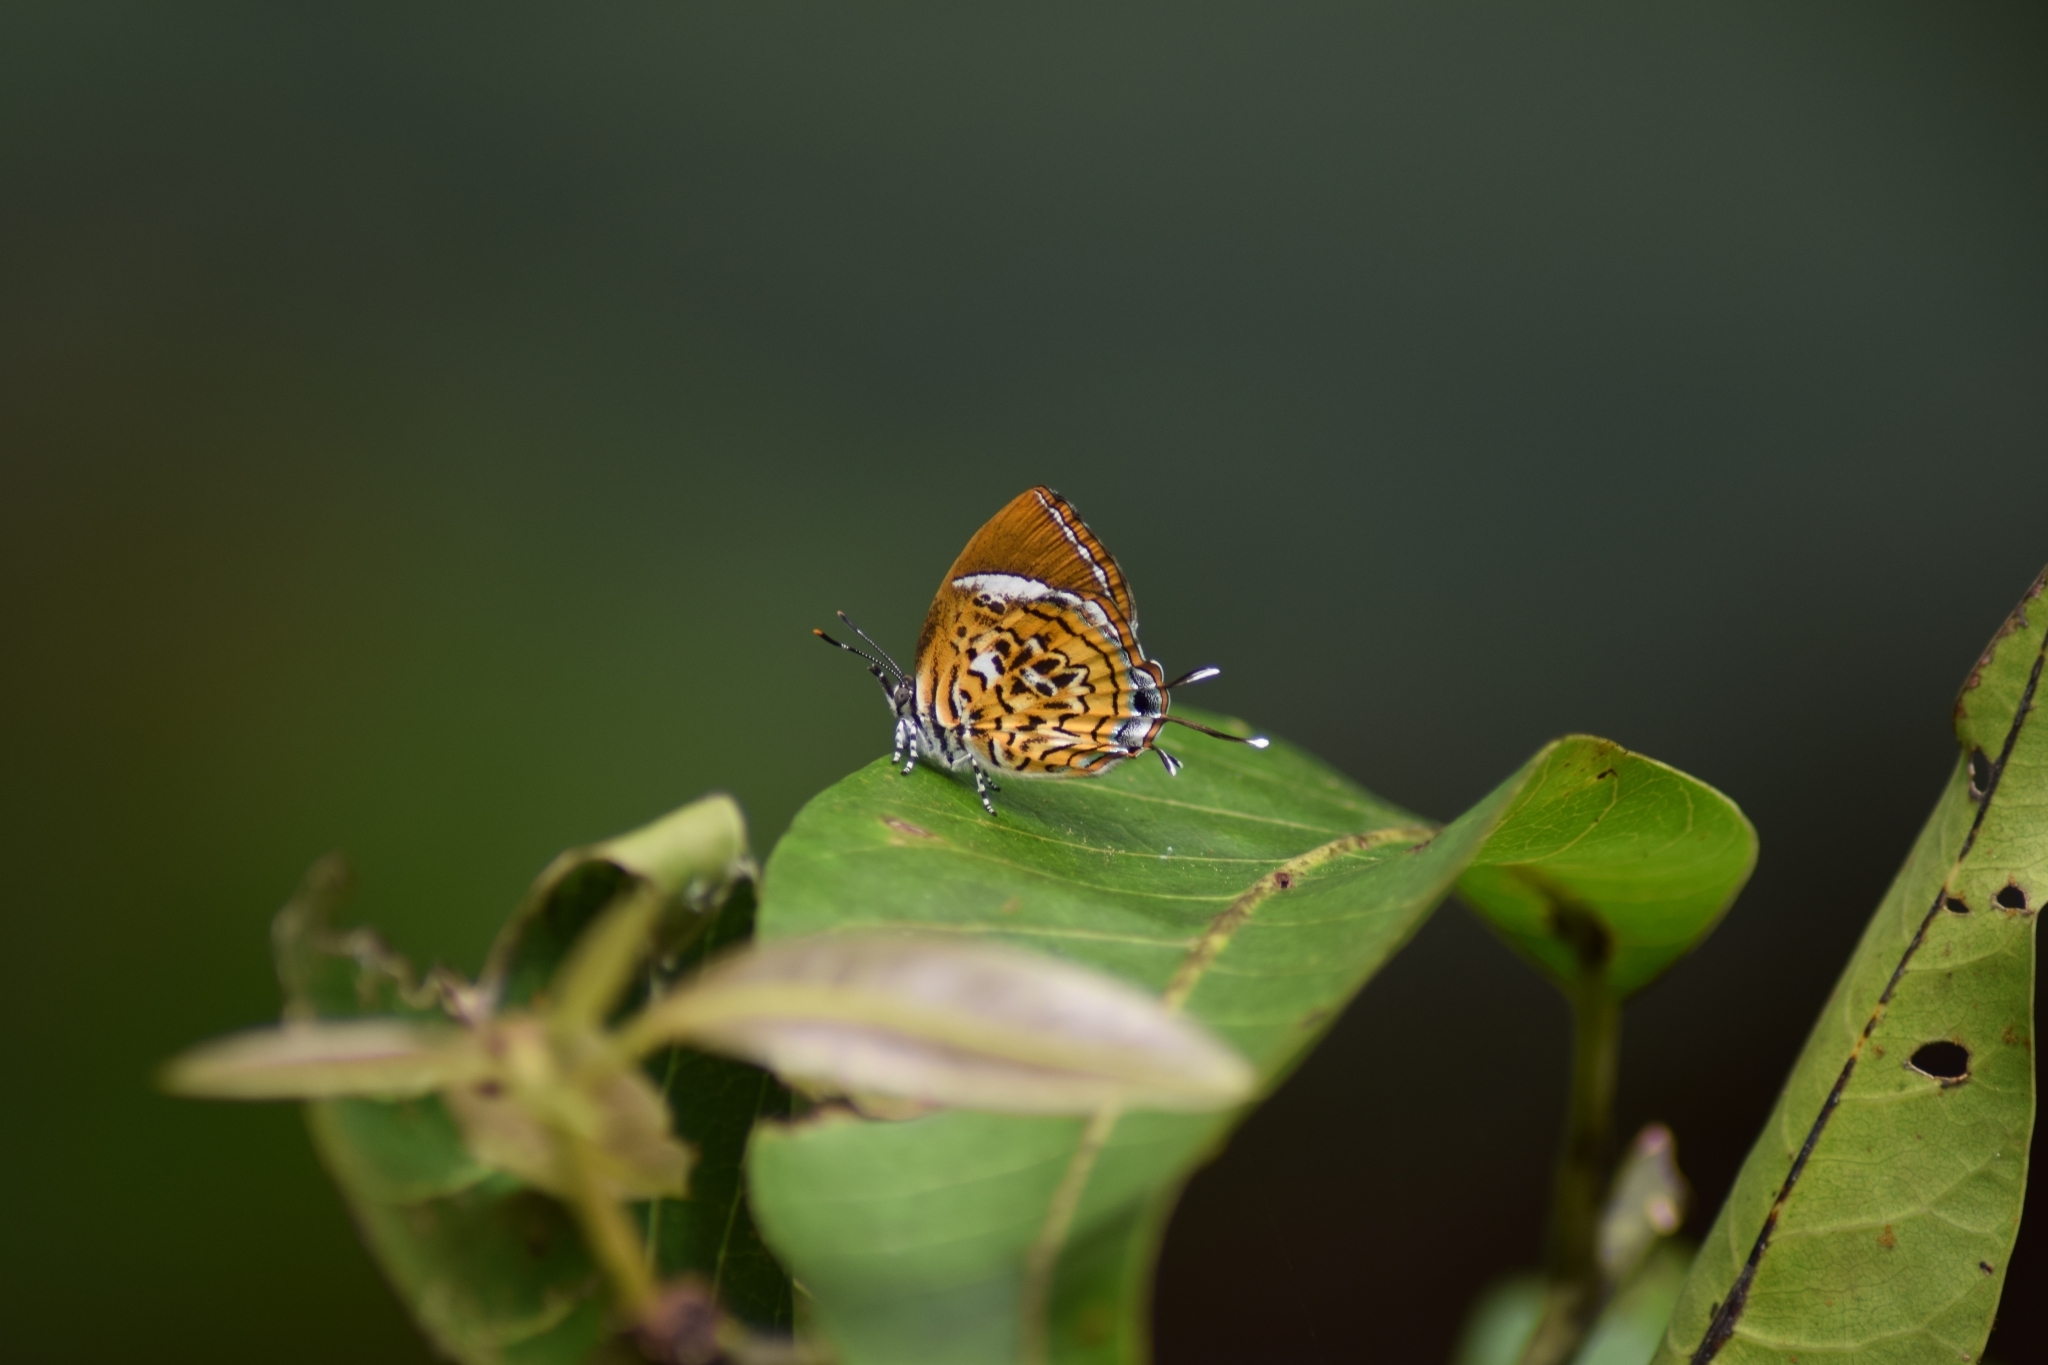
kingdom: Animalia
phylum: Arthropoda
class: Insecta
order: Lepidoptera
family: Lycaenidae
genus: Rathinda
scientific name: Rathinda amor
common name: Monkey puzzle
